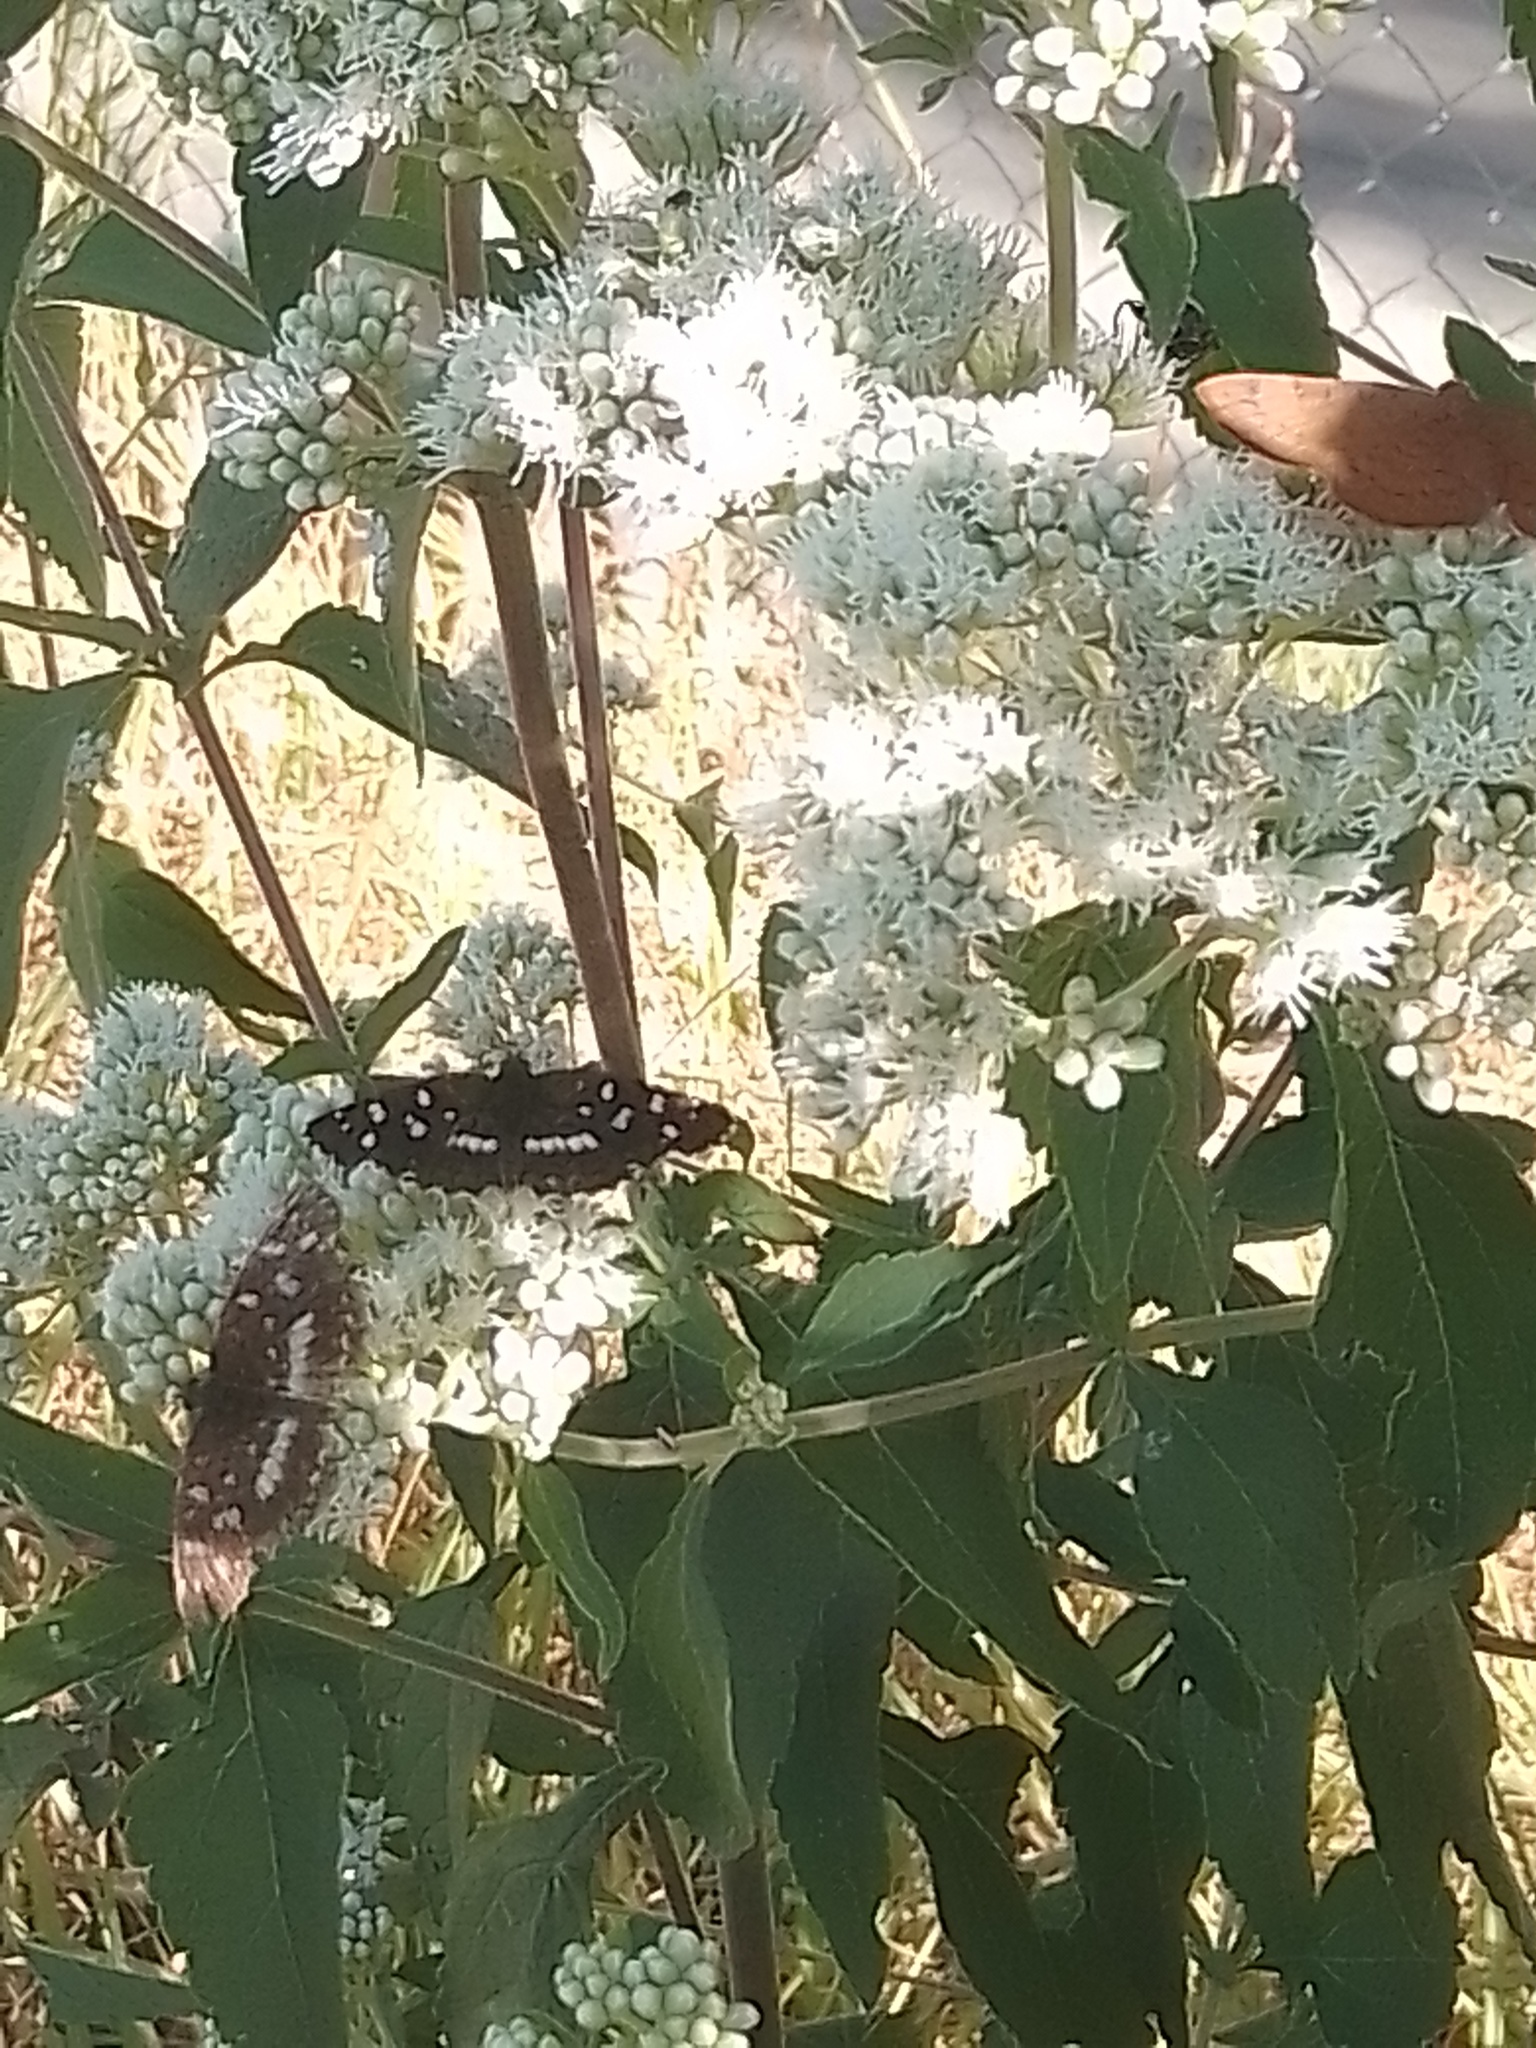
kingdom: Animalia
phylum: Arthropoda
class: Insecta
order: Lepidoptera
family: Lycaenidae
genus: Emesis
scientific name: Emesis russula
